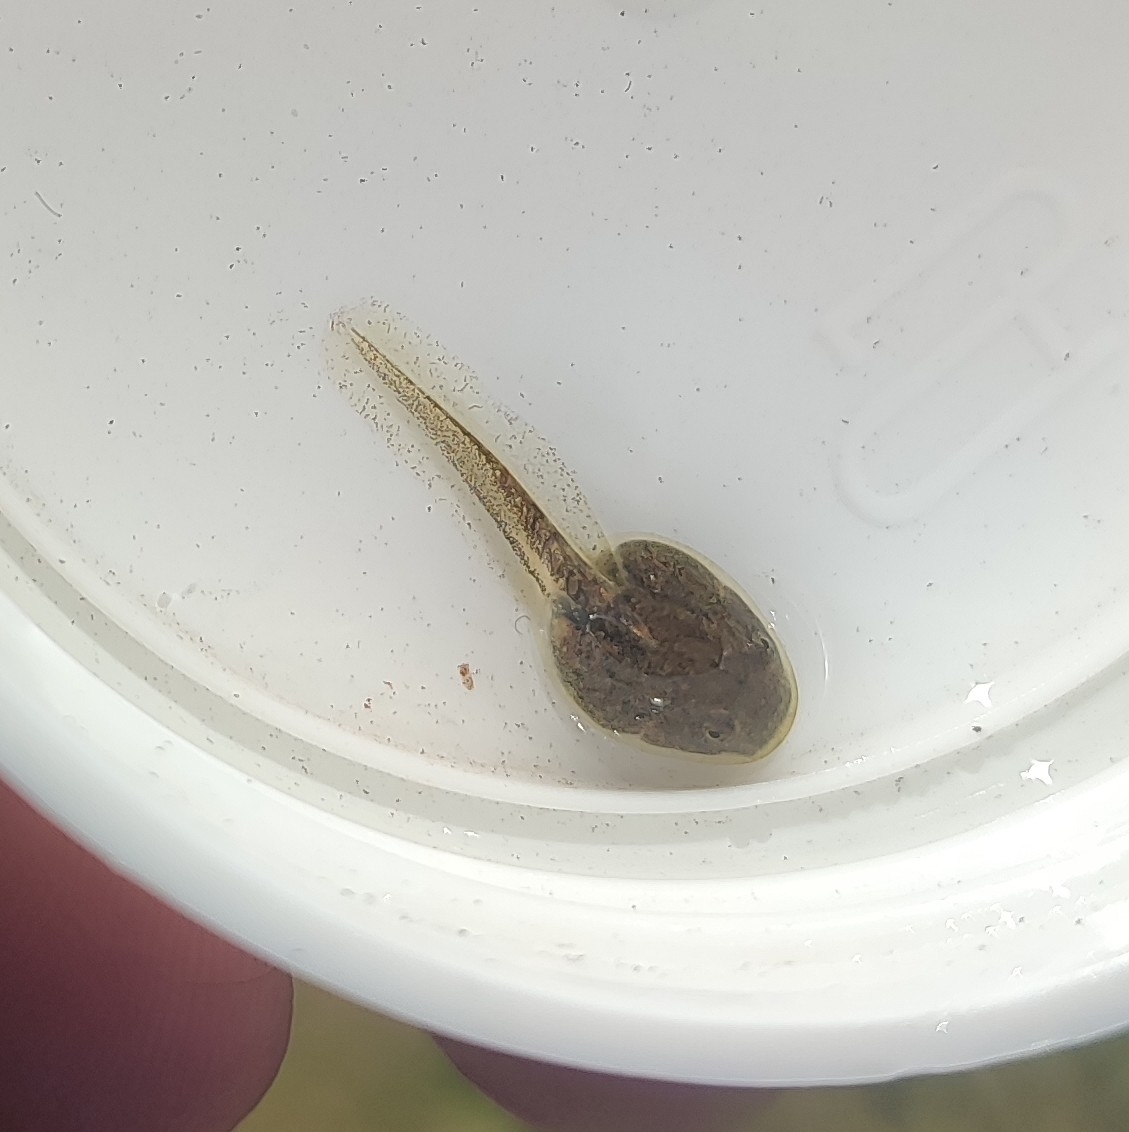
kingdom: Animalia
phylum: Chordata
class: Amphibia
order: Anura
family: Alytidae
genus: Alytes
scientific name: Alytes cisternasii
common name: Iberian midwife toad
